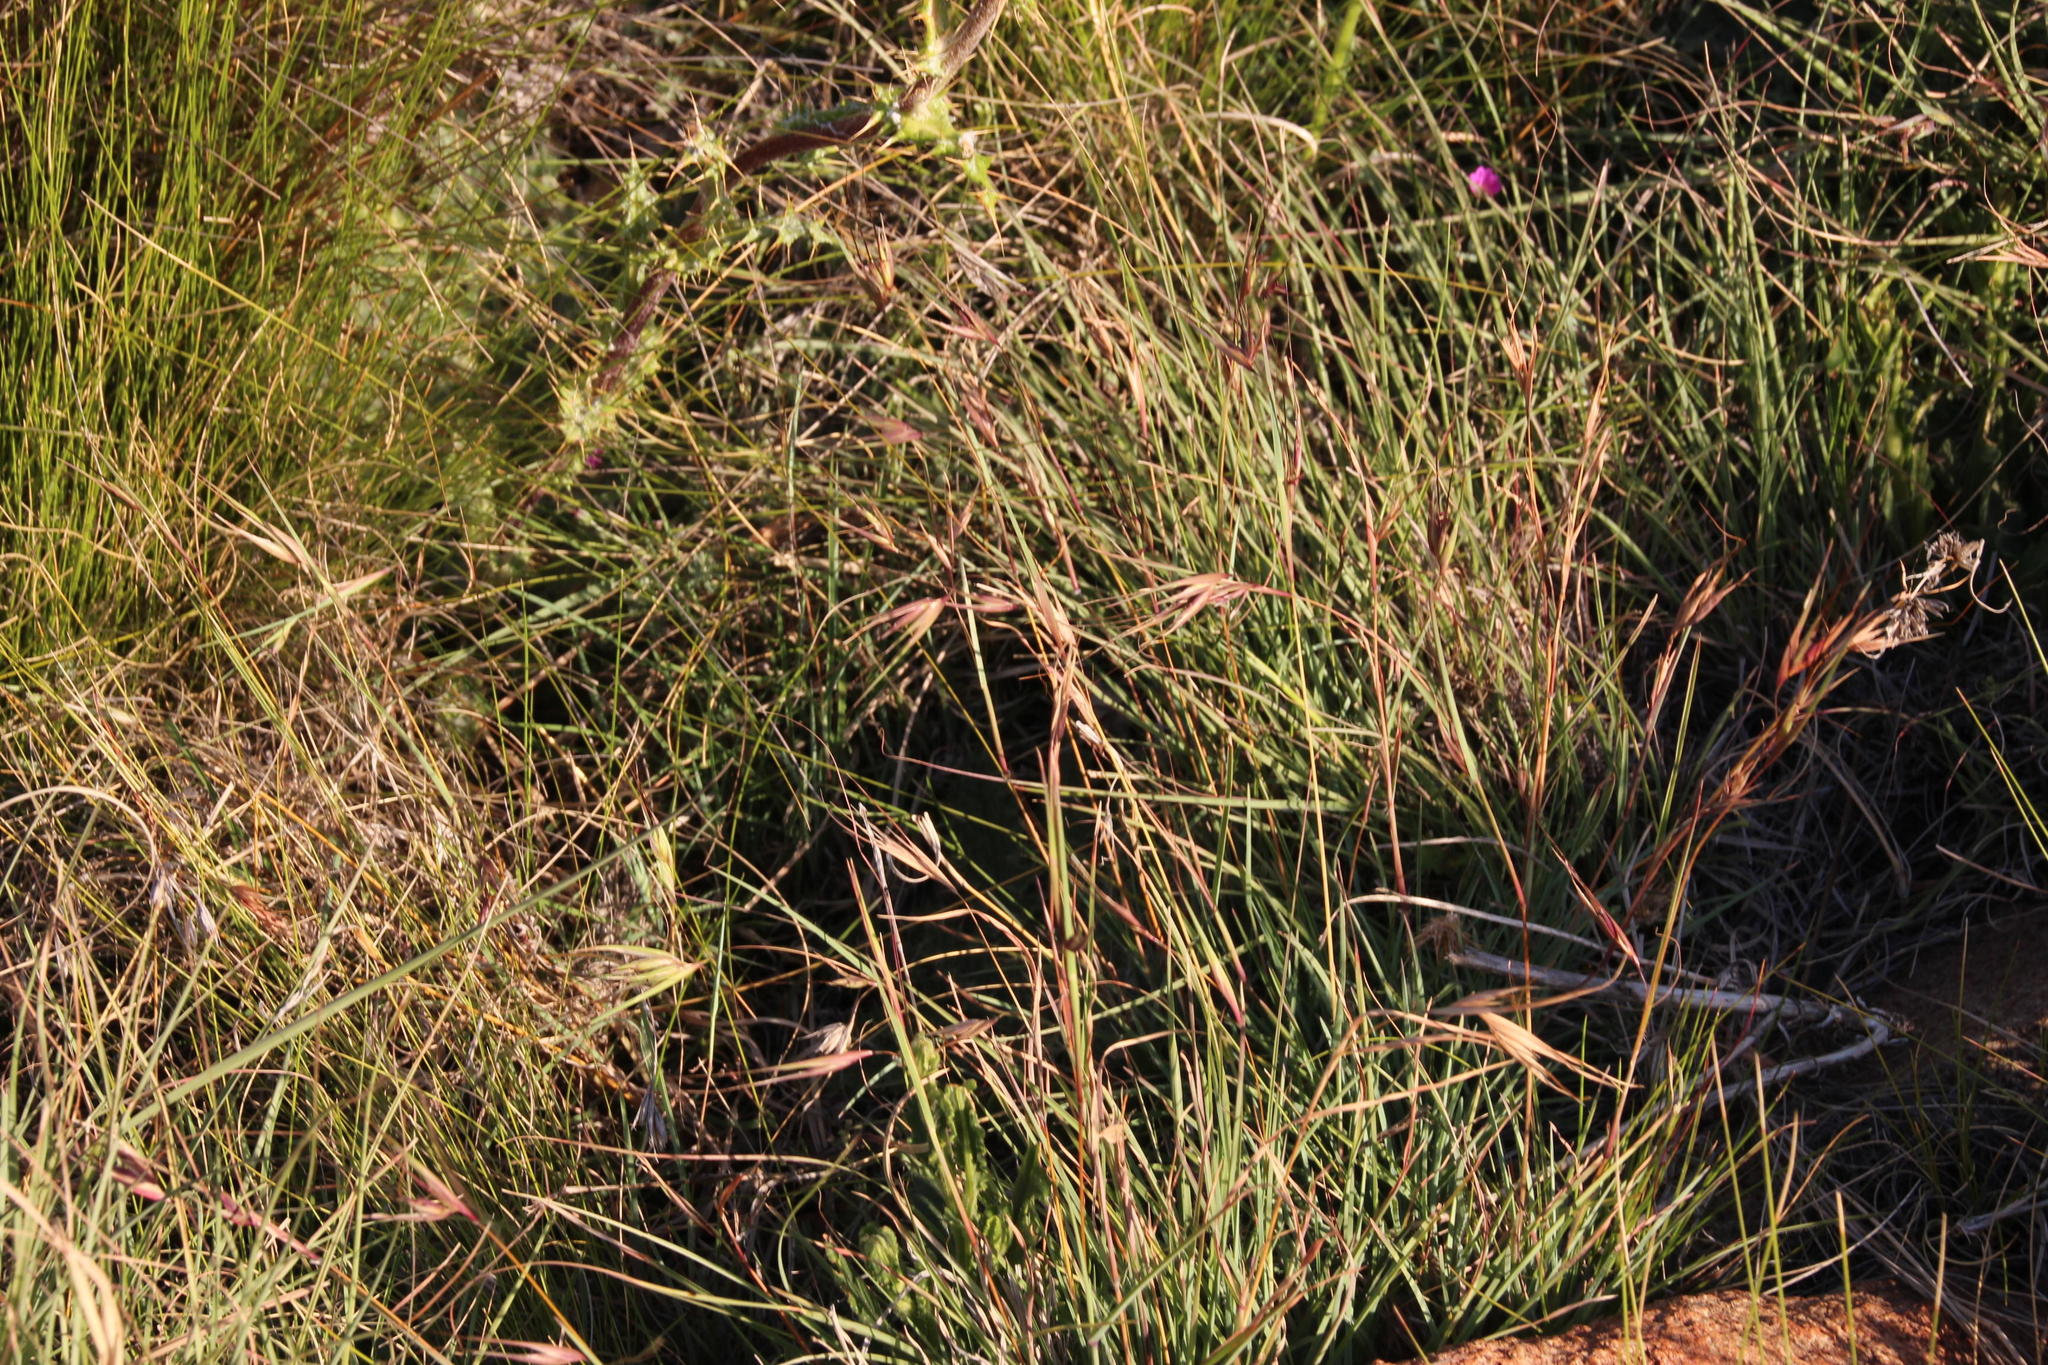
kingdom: Plantae
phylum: Tracheophyta
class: Liliopsida
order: Poales
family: Poaceae
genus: Themeda
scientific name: Themeda triandra
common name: Kangaroo grass
